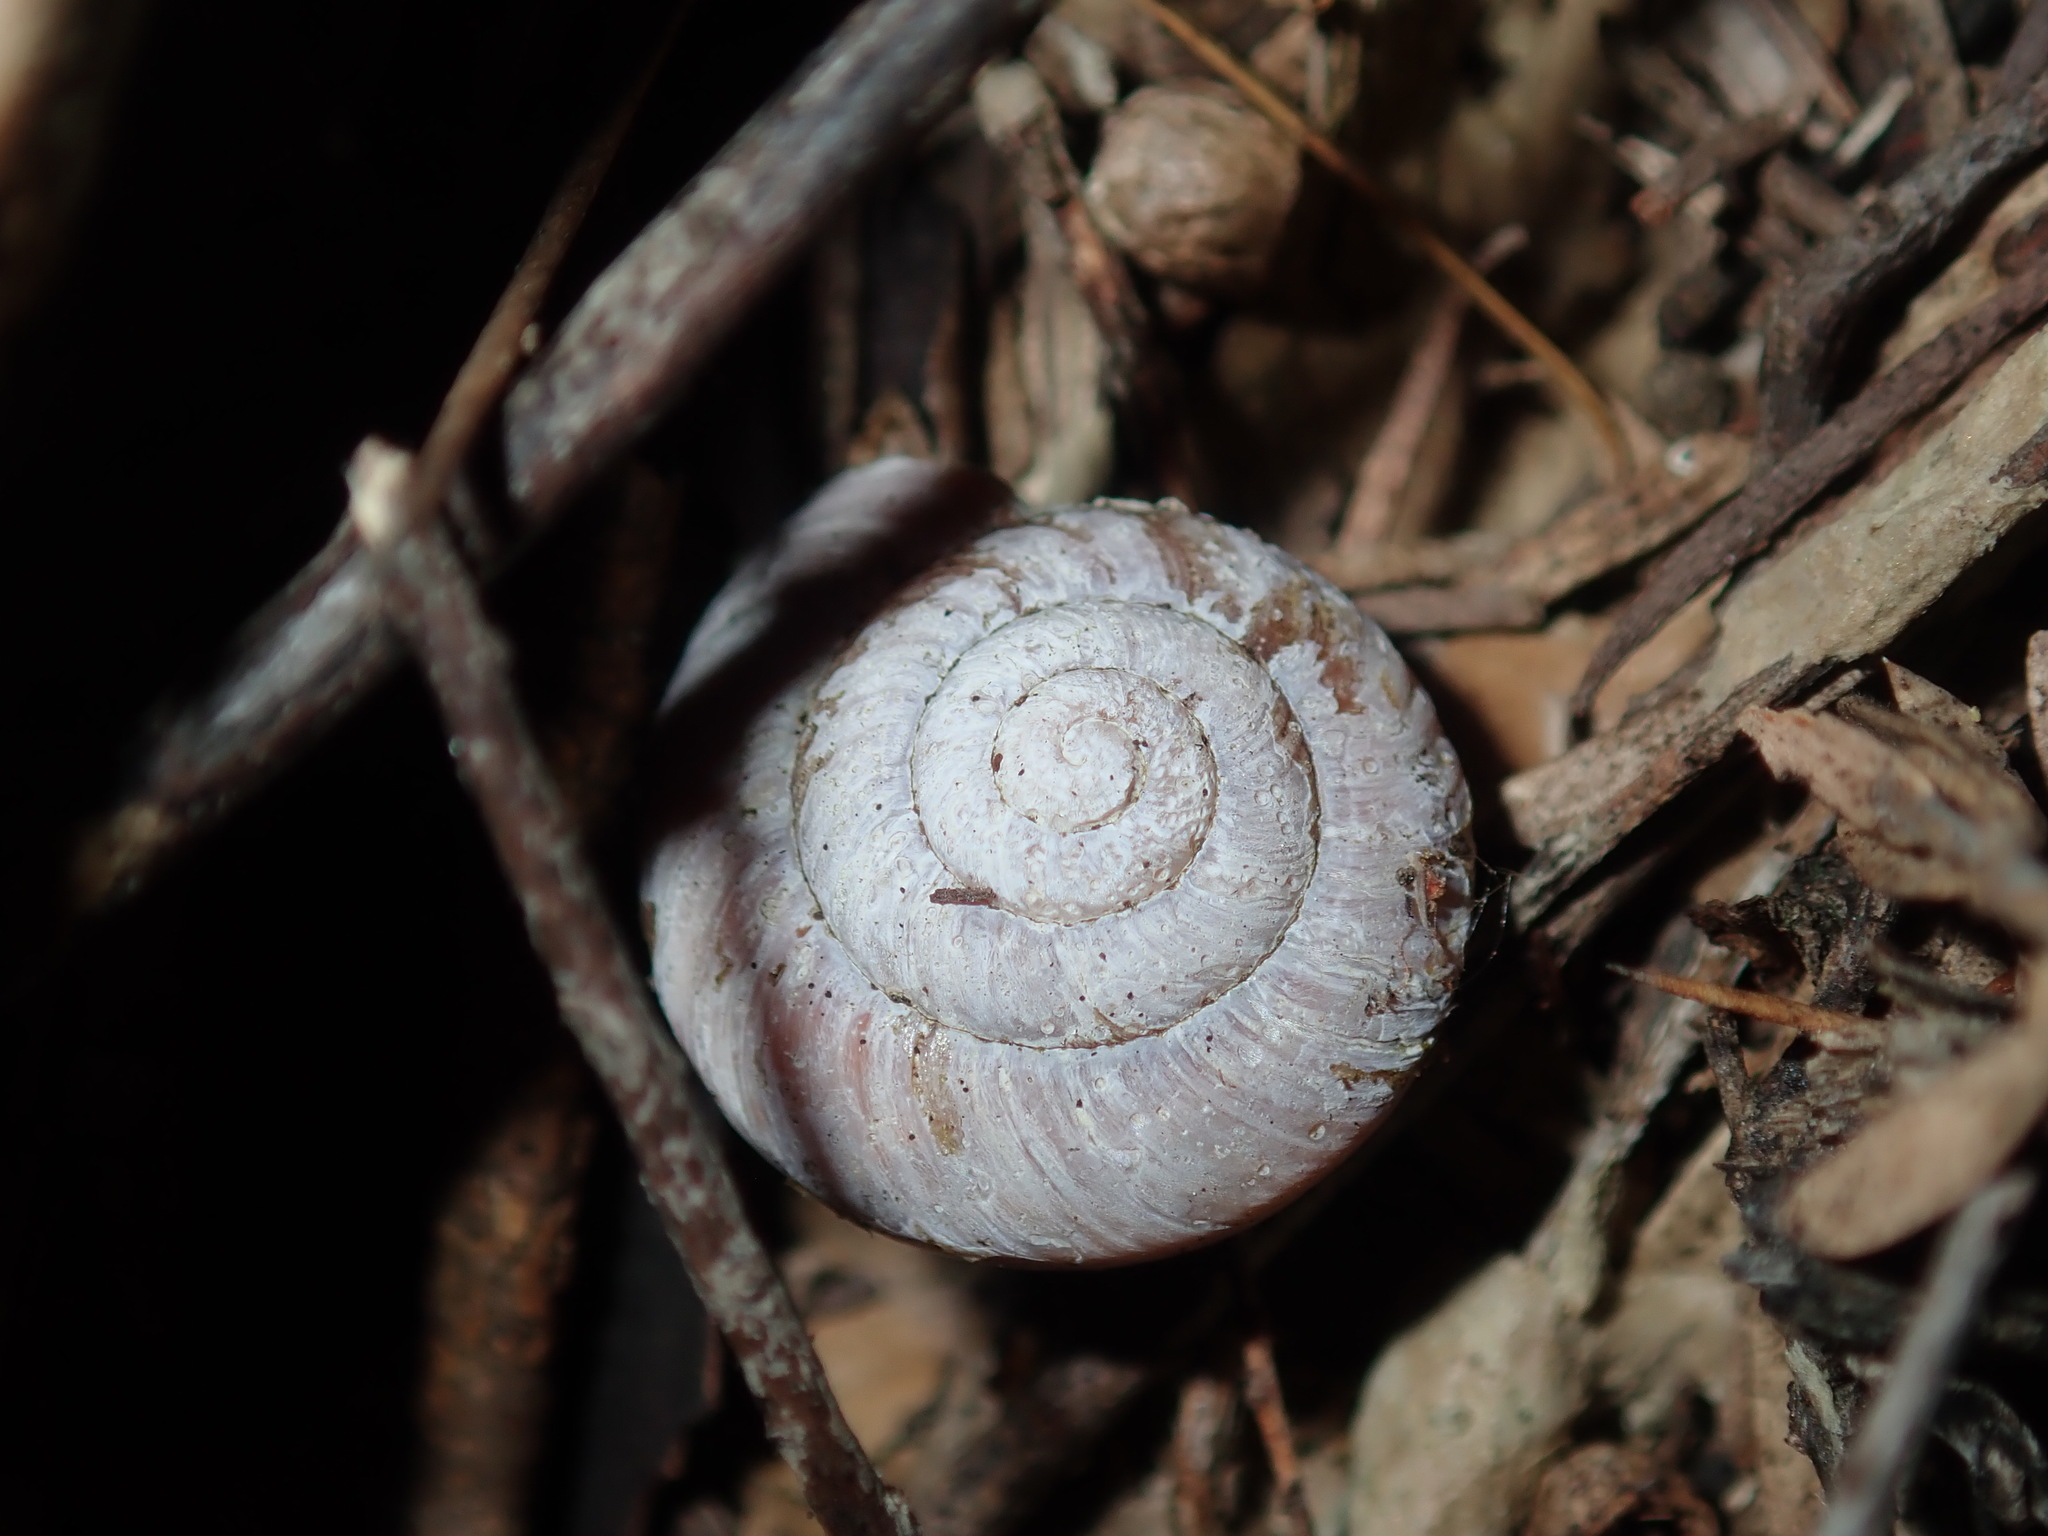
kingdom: Animalia
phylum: Mollusca
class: Gastropoda
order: Stylommatophora
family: Camaenidae
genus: Sauroconcha
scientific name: Sauroconcha sheai
